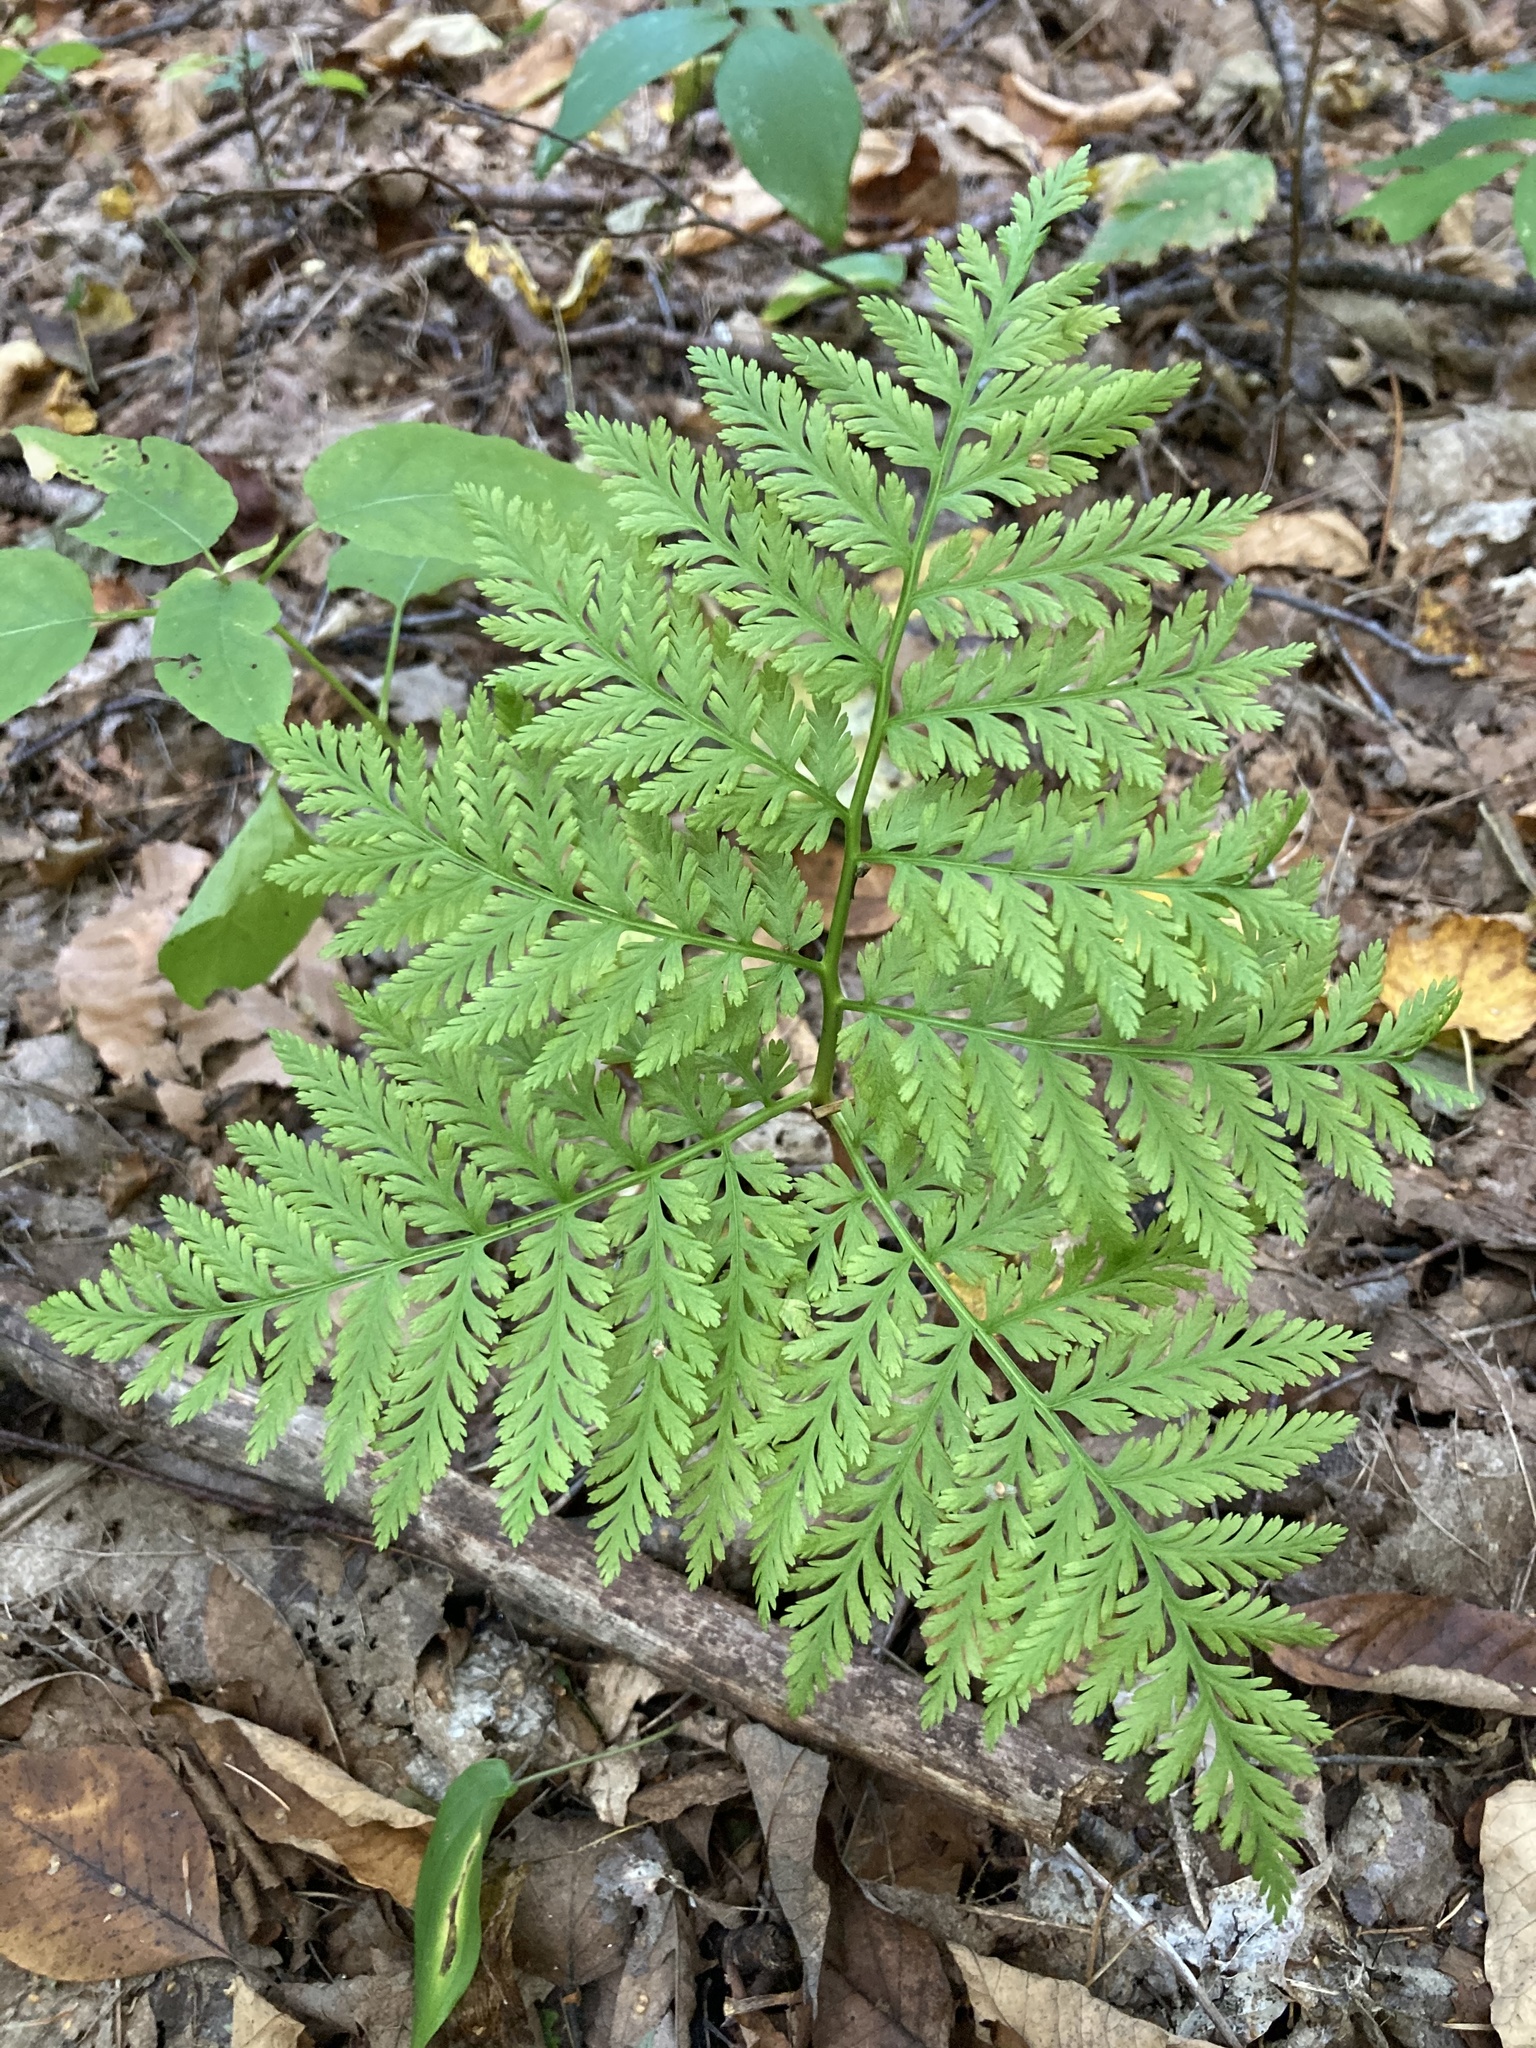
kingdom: Plantae
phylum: Tracheophyta
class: Polypodiopsida
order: Ophioglossales
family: Ophioglossaceae
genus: Botrypus
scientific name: Botrypus virginianus
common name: Common grapefern
